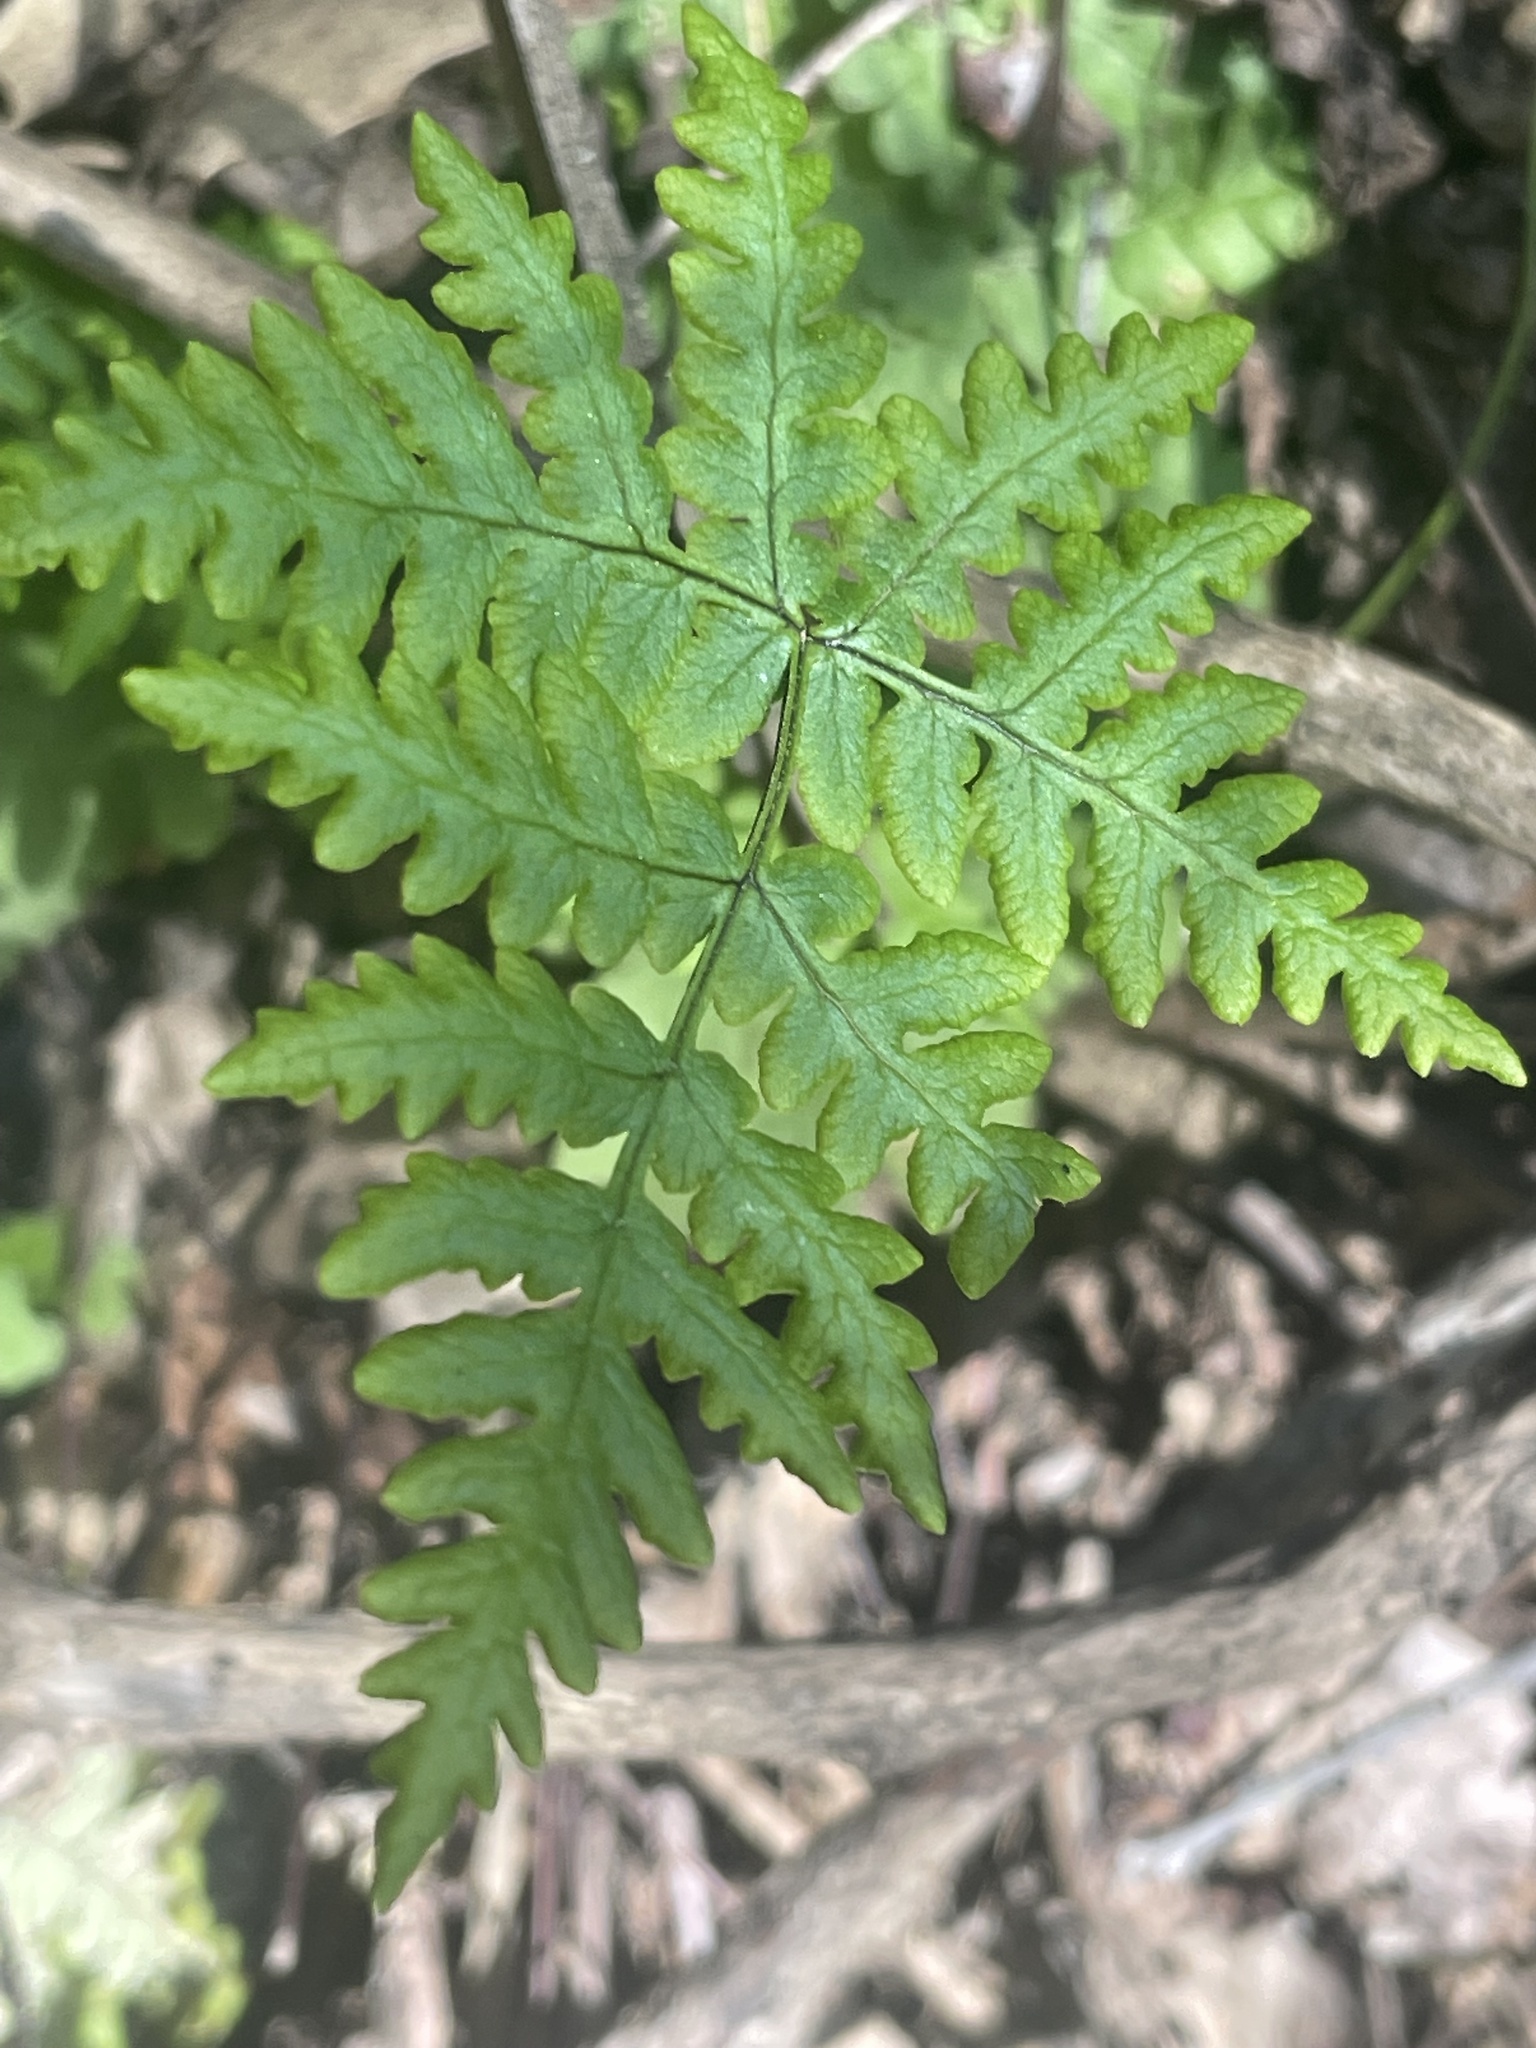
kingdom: Plantae
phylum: Tracheophyta
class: Polypodiopsida
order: Polypodiales
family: Pteridaceae
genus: Pentagramma
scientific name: Pentagramma triangularis
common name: Gold fern
